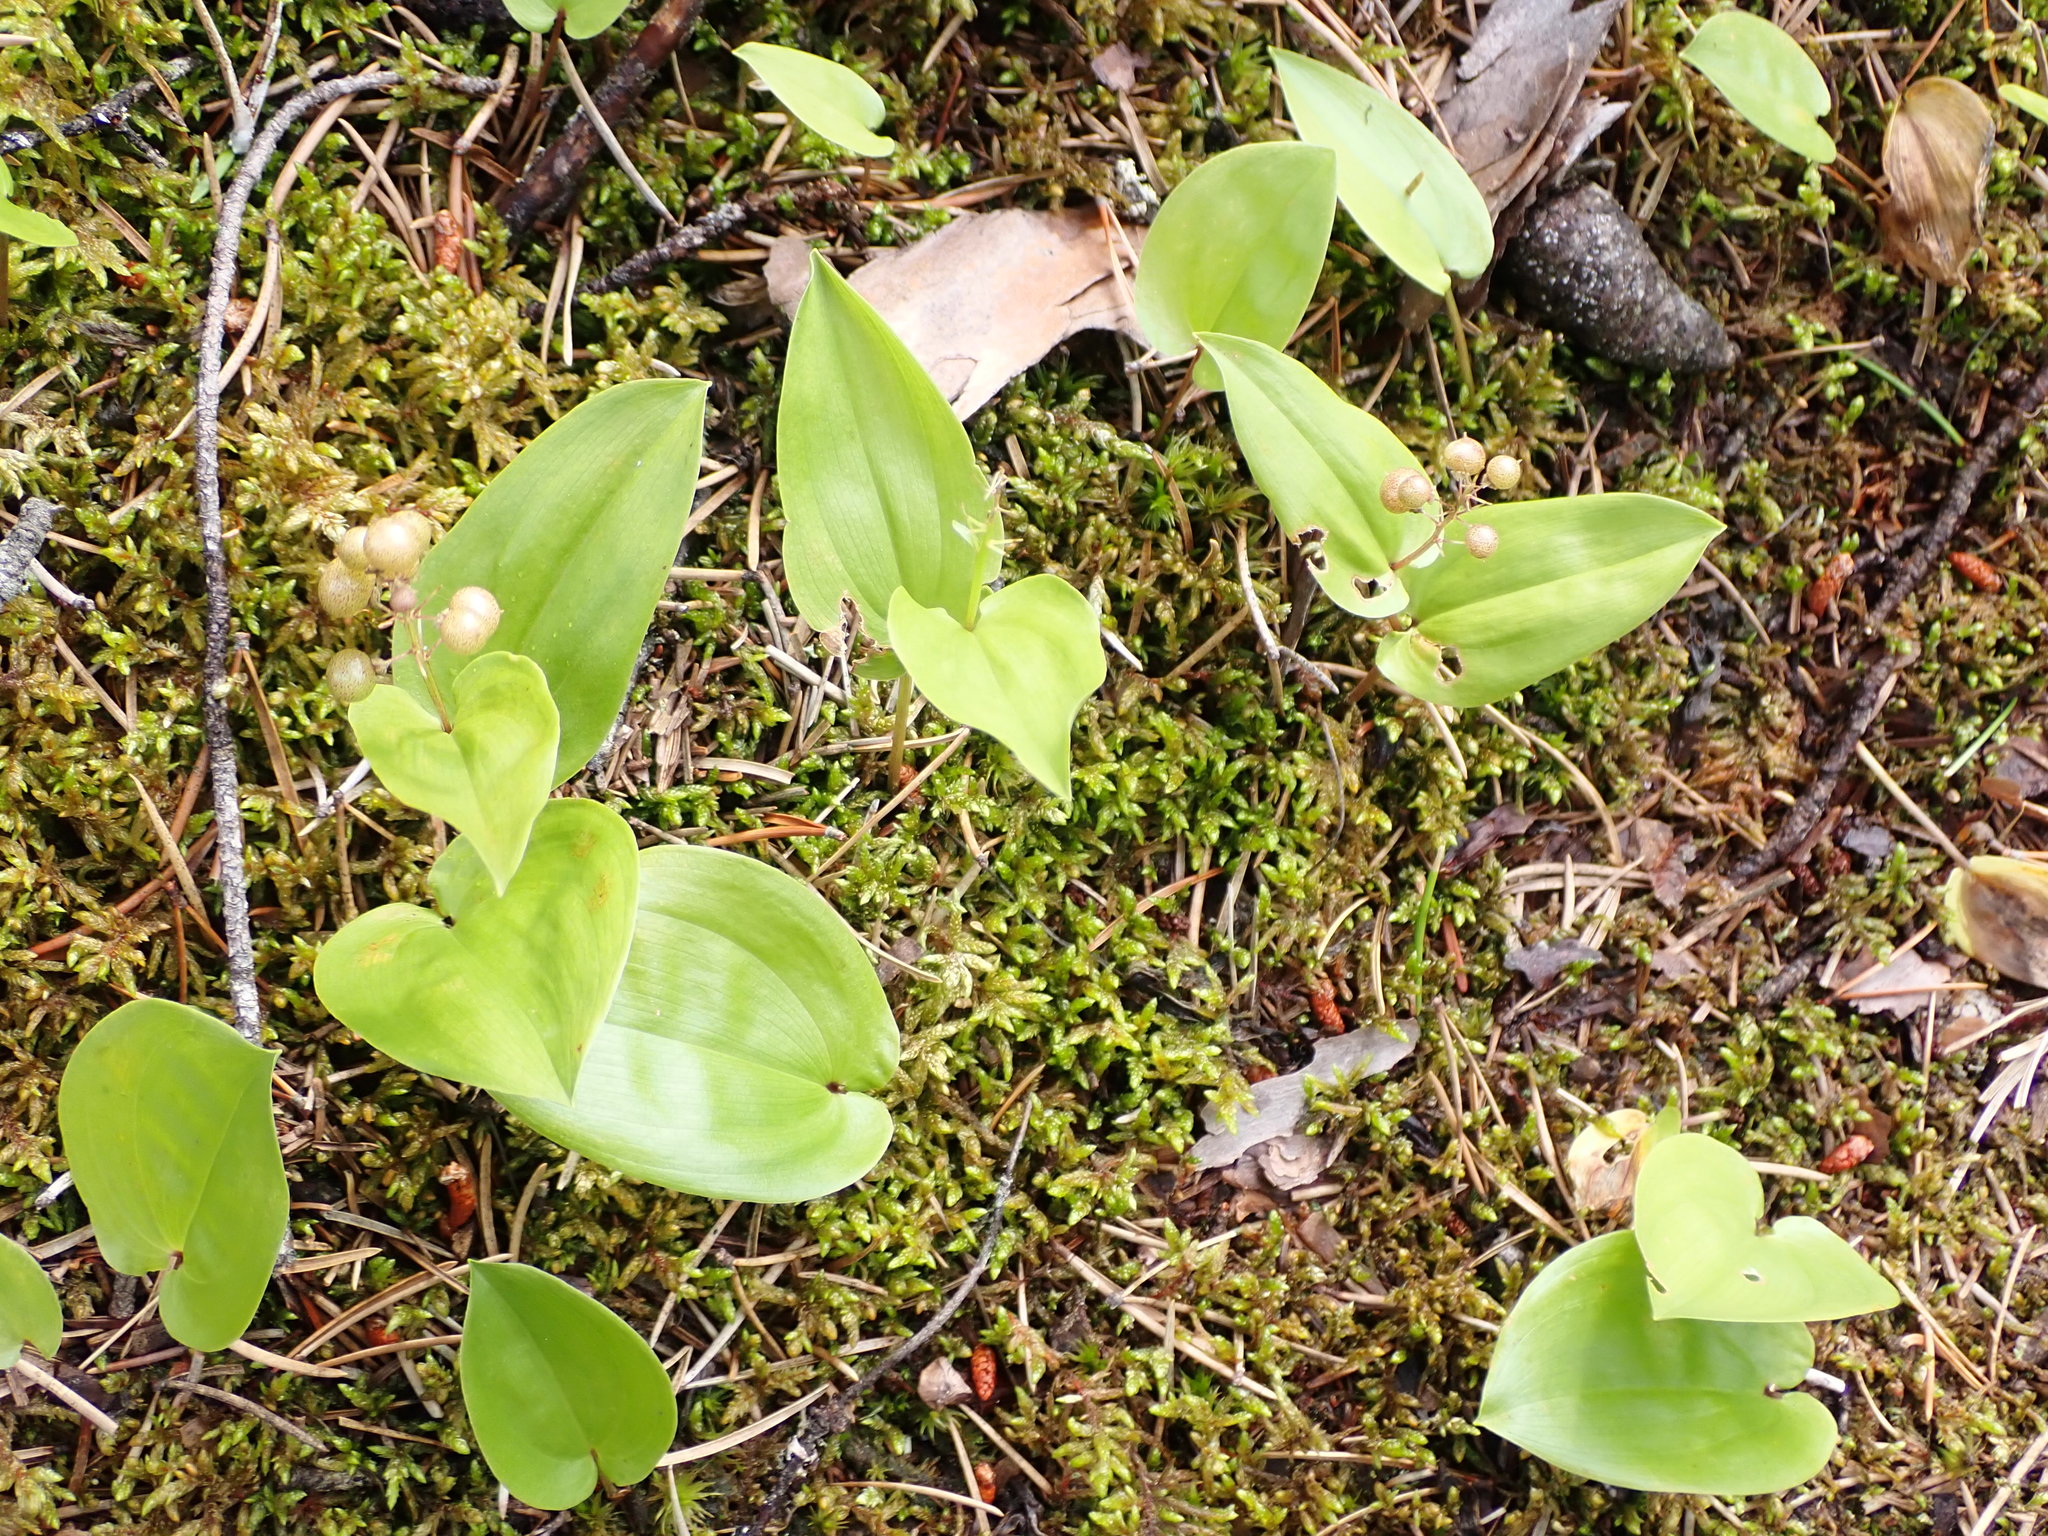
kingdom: Plantae
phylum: Tracheophyta
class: Liliopsida
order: Asparagales
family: Asparagaceae
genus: Maianthemum
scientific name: Maianthemum canadense
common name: False lily-of-the-valley
